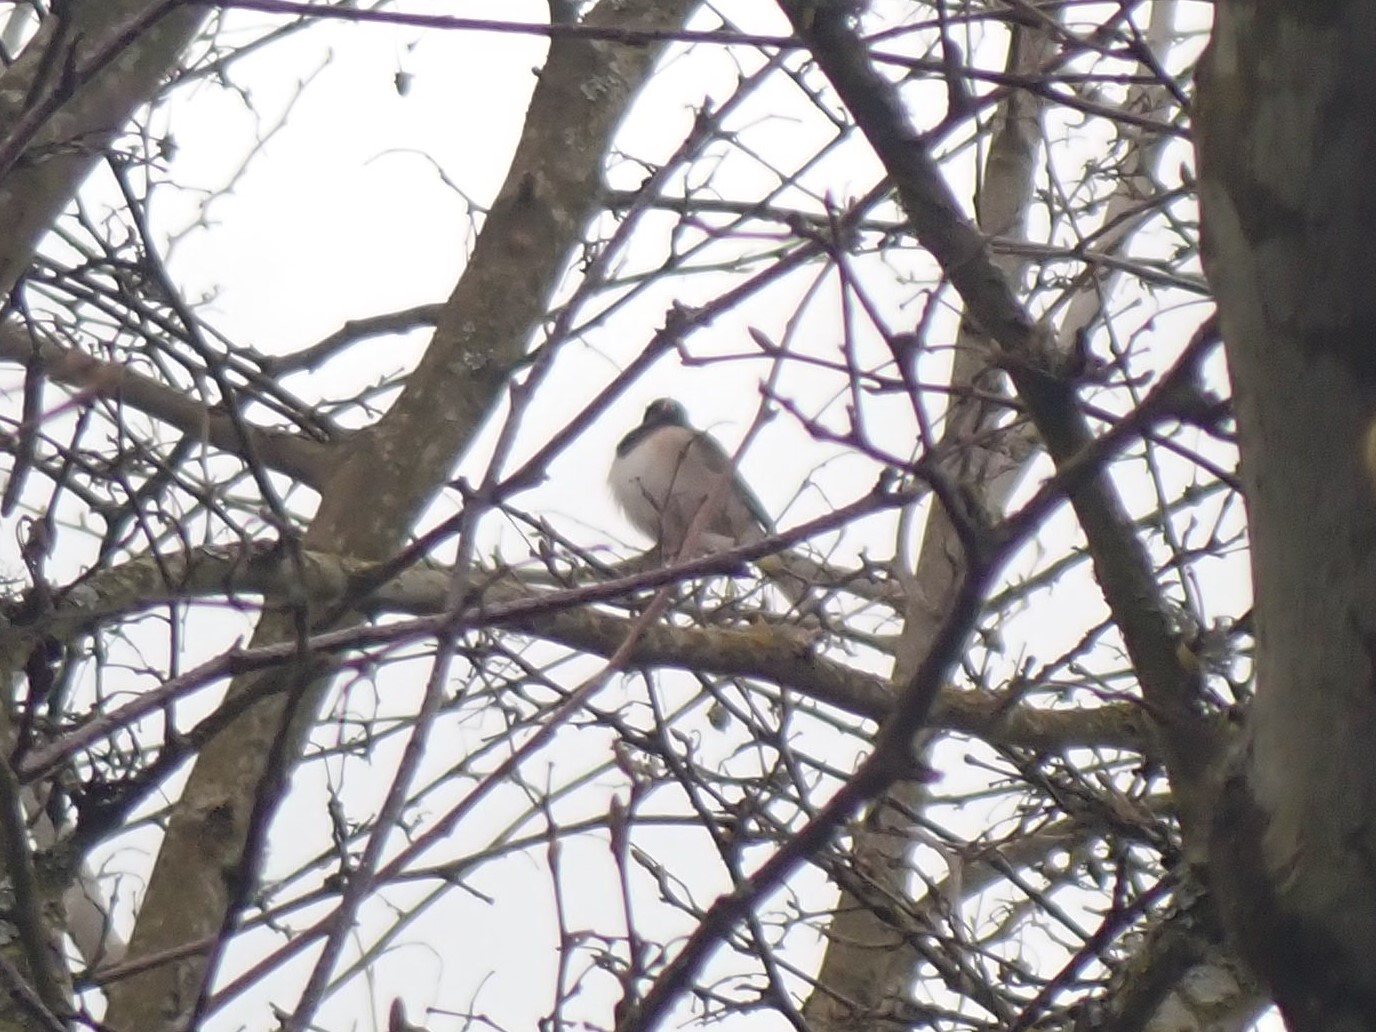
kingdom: Animalia
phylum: Chordata
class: Aves
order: Passeriformes
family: Passerellidae
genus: Junco
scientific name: Junco hyemalis
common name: Dark-eyed junco
